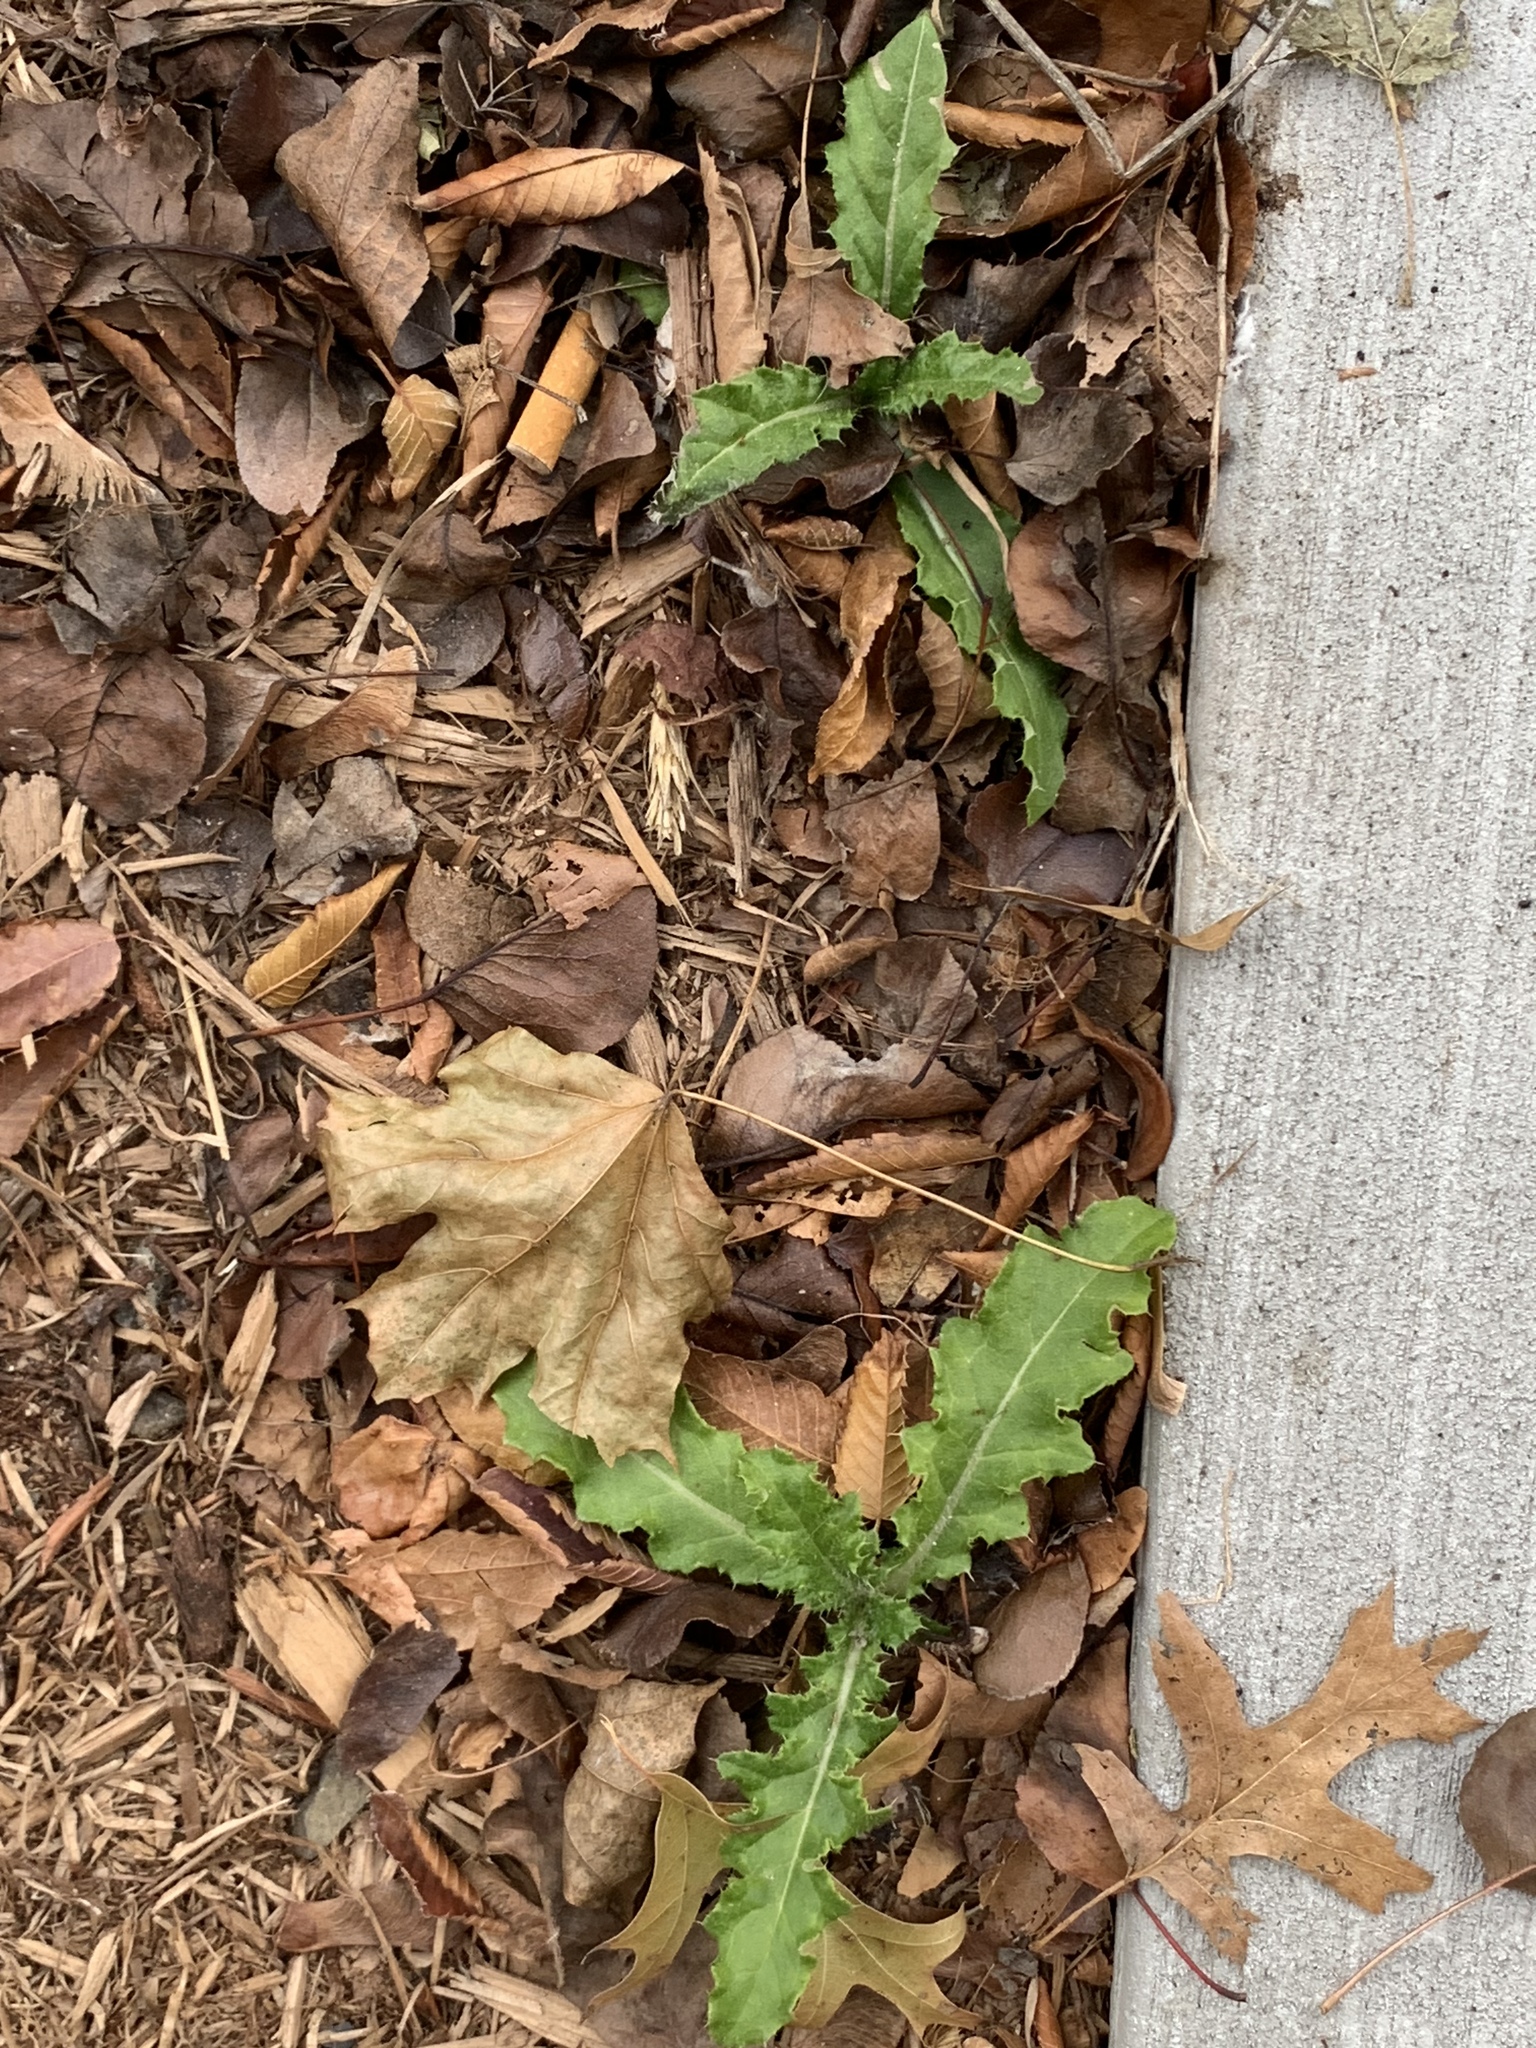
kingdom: Plantae
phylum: Tracheophyta
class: Magnoliopsida
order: Asterales
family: Asteraceae
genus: Cirsium
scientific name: Cirsium arvense
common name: Creeping thistle
